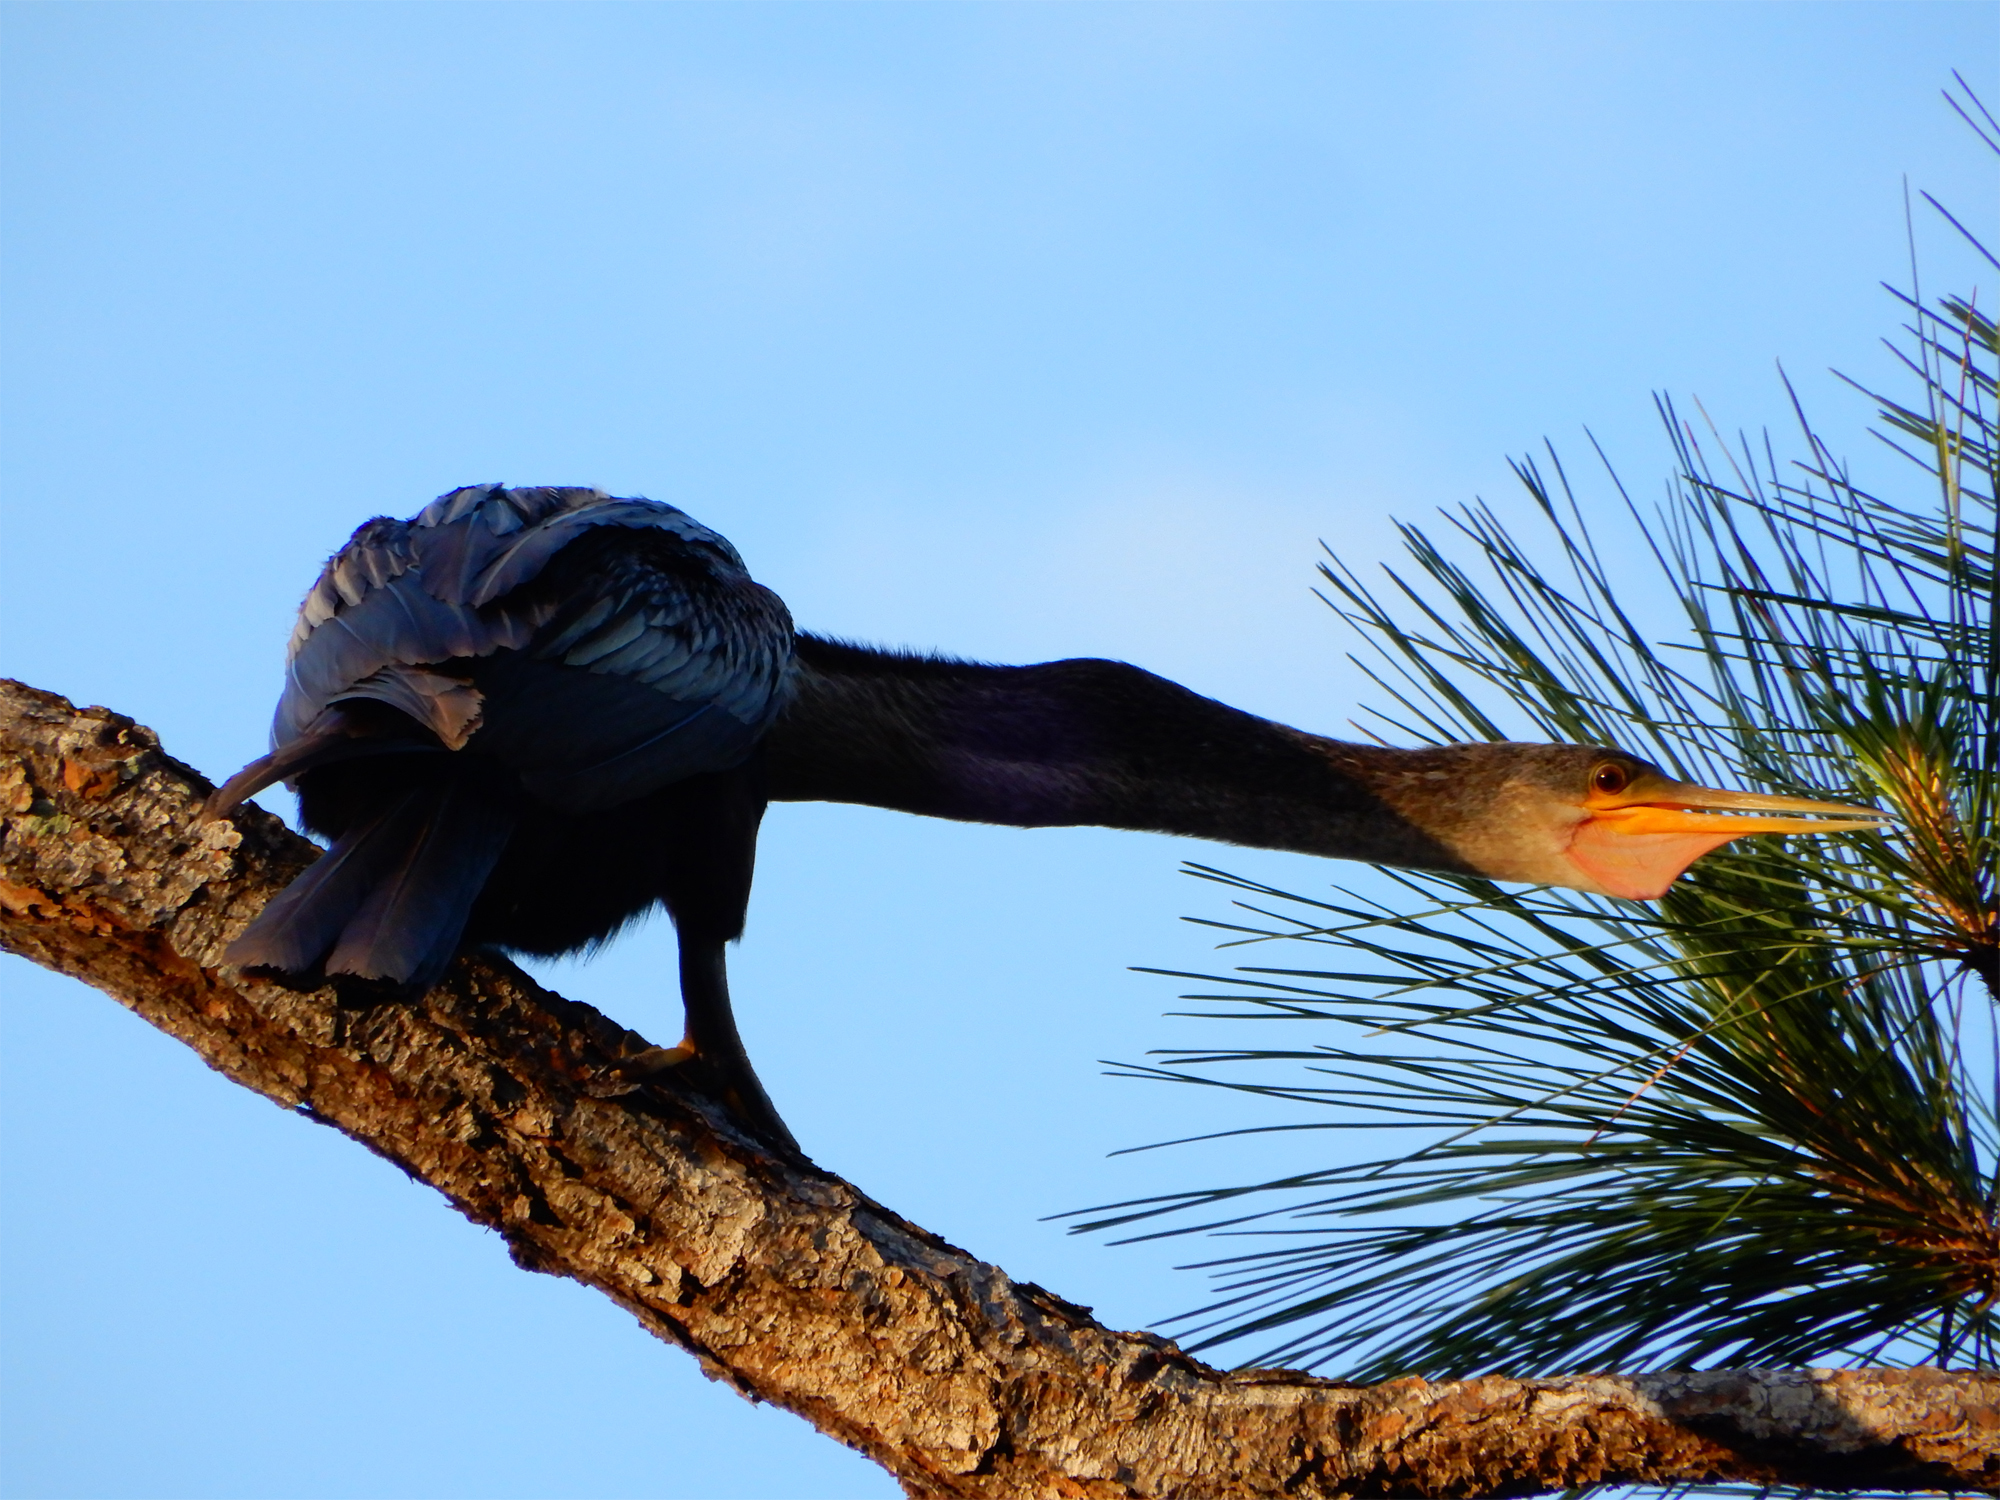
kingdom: Animalia
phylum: Chordata
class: Aves
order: Suliformes
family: Anhingidae
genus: Anhinga
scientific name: Anhinga anhinga
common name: Anhinga
